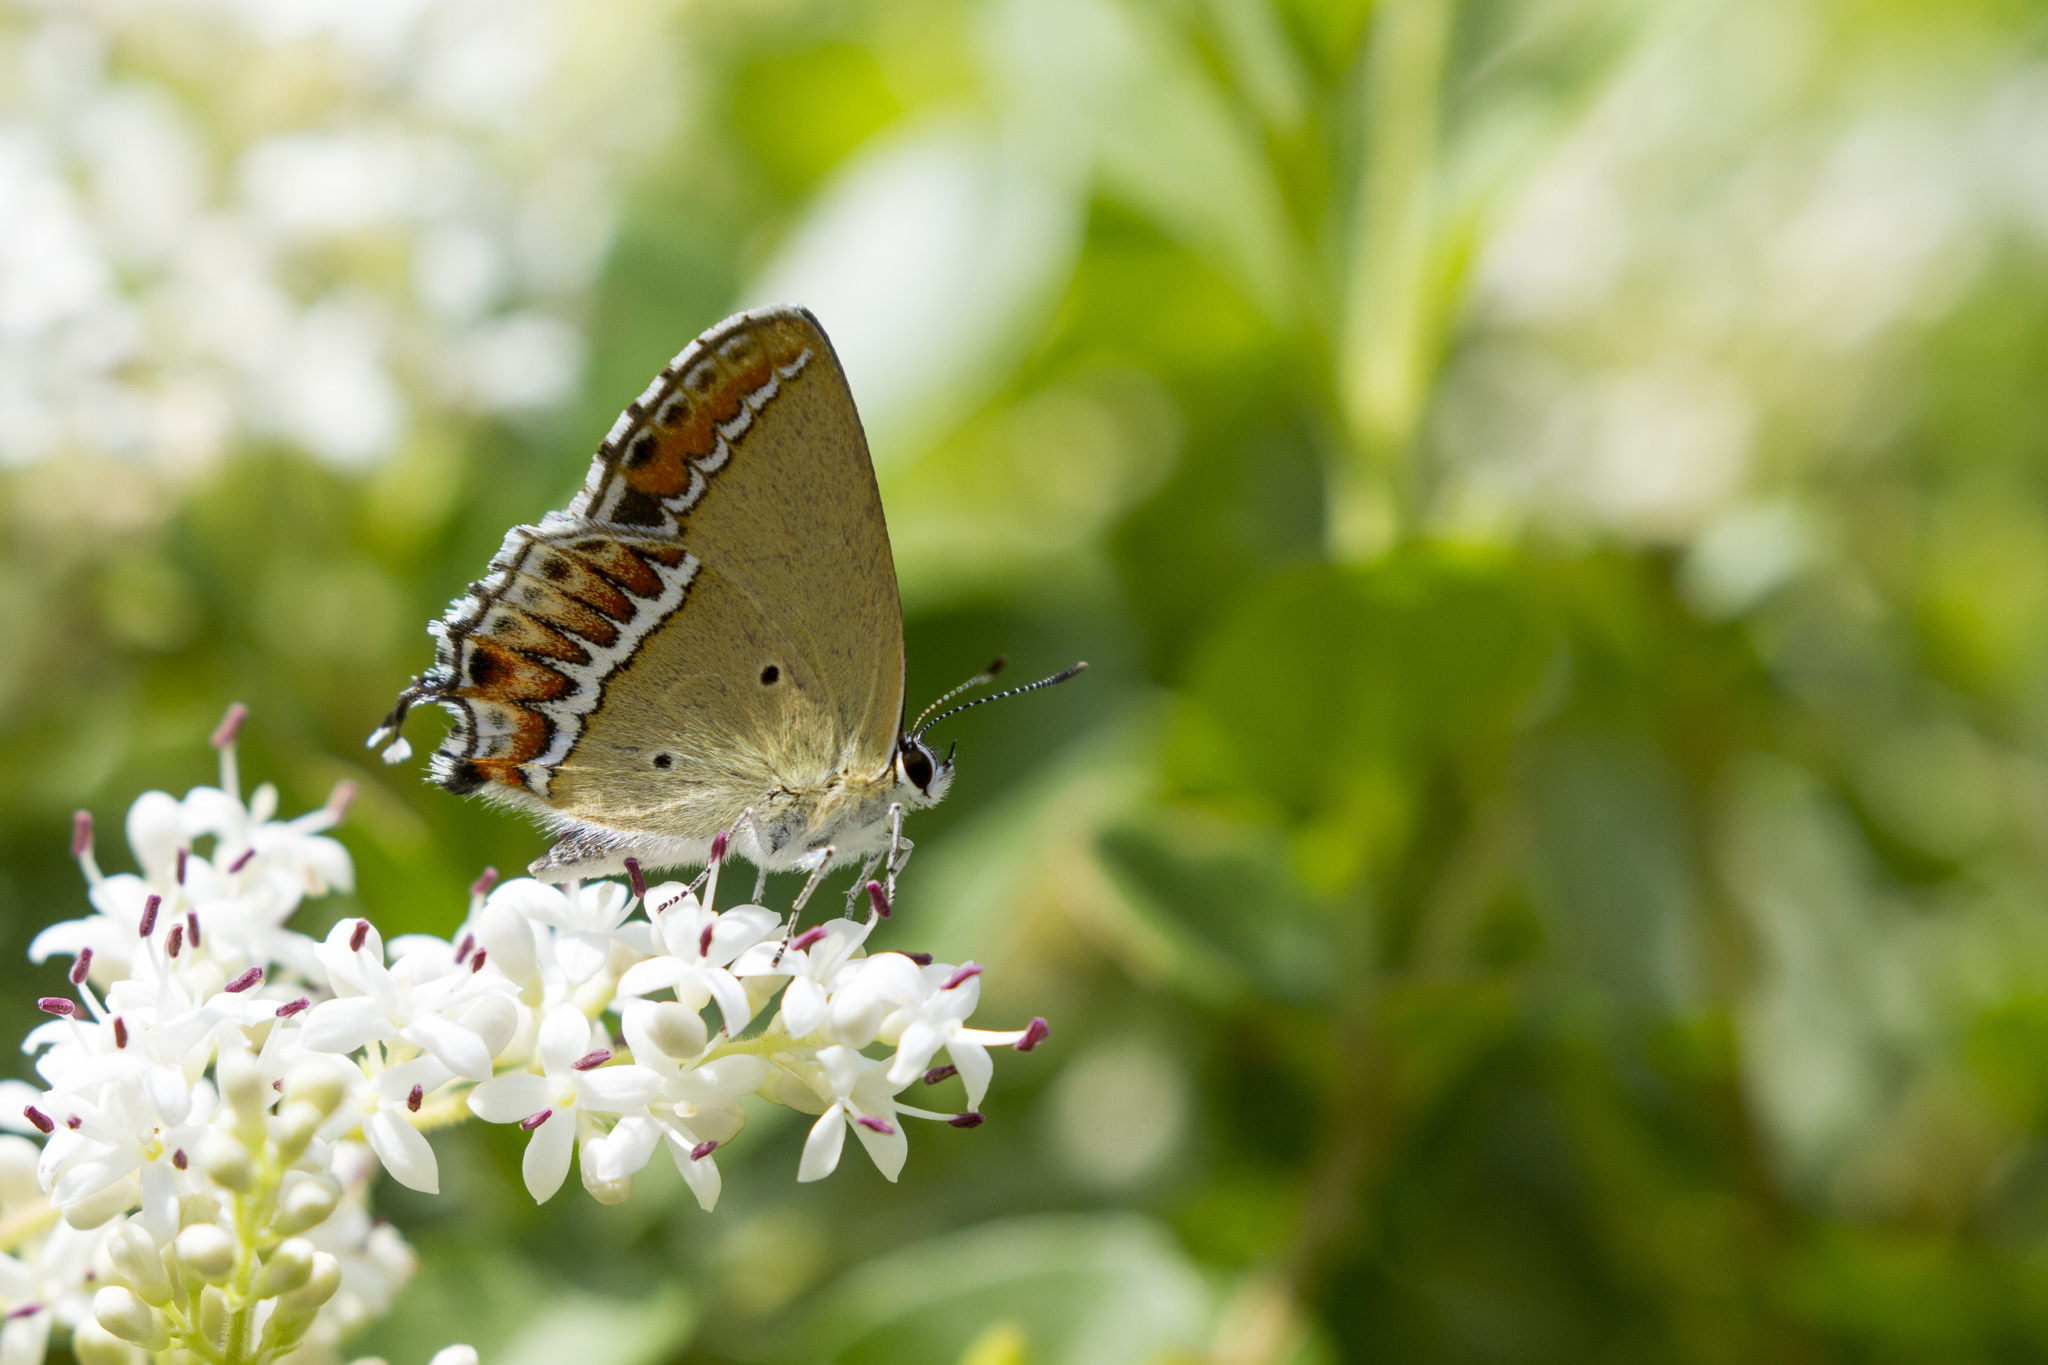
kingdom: Animalia
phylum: Arthropoda
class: Insecta
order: Lepidoptera
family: Lycaenidae
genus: Heliophorus
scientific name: Heliophorus sena
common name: Sorrel sapphire
